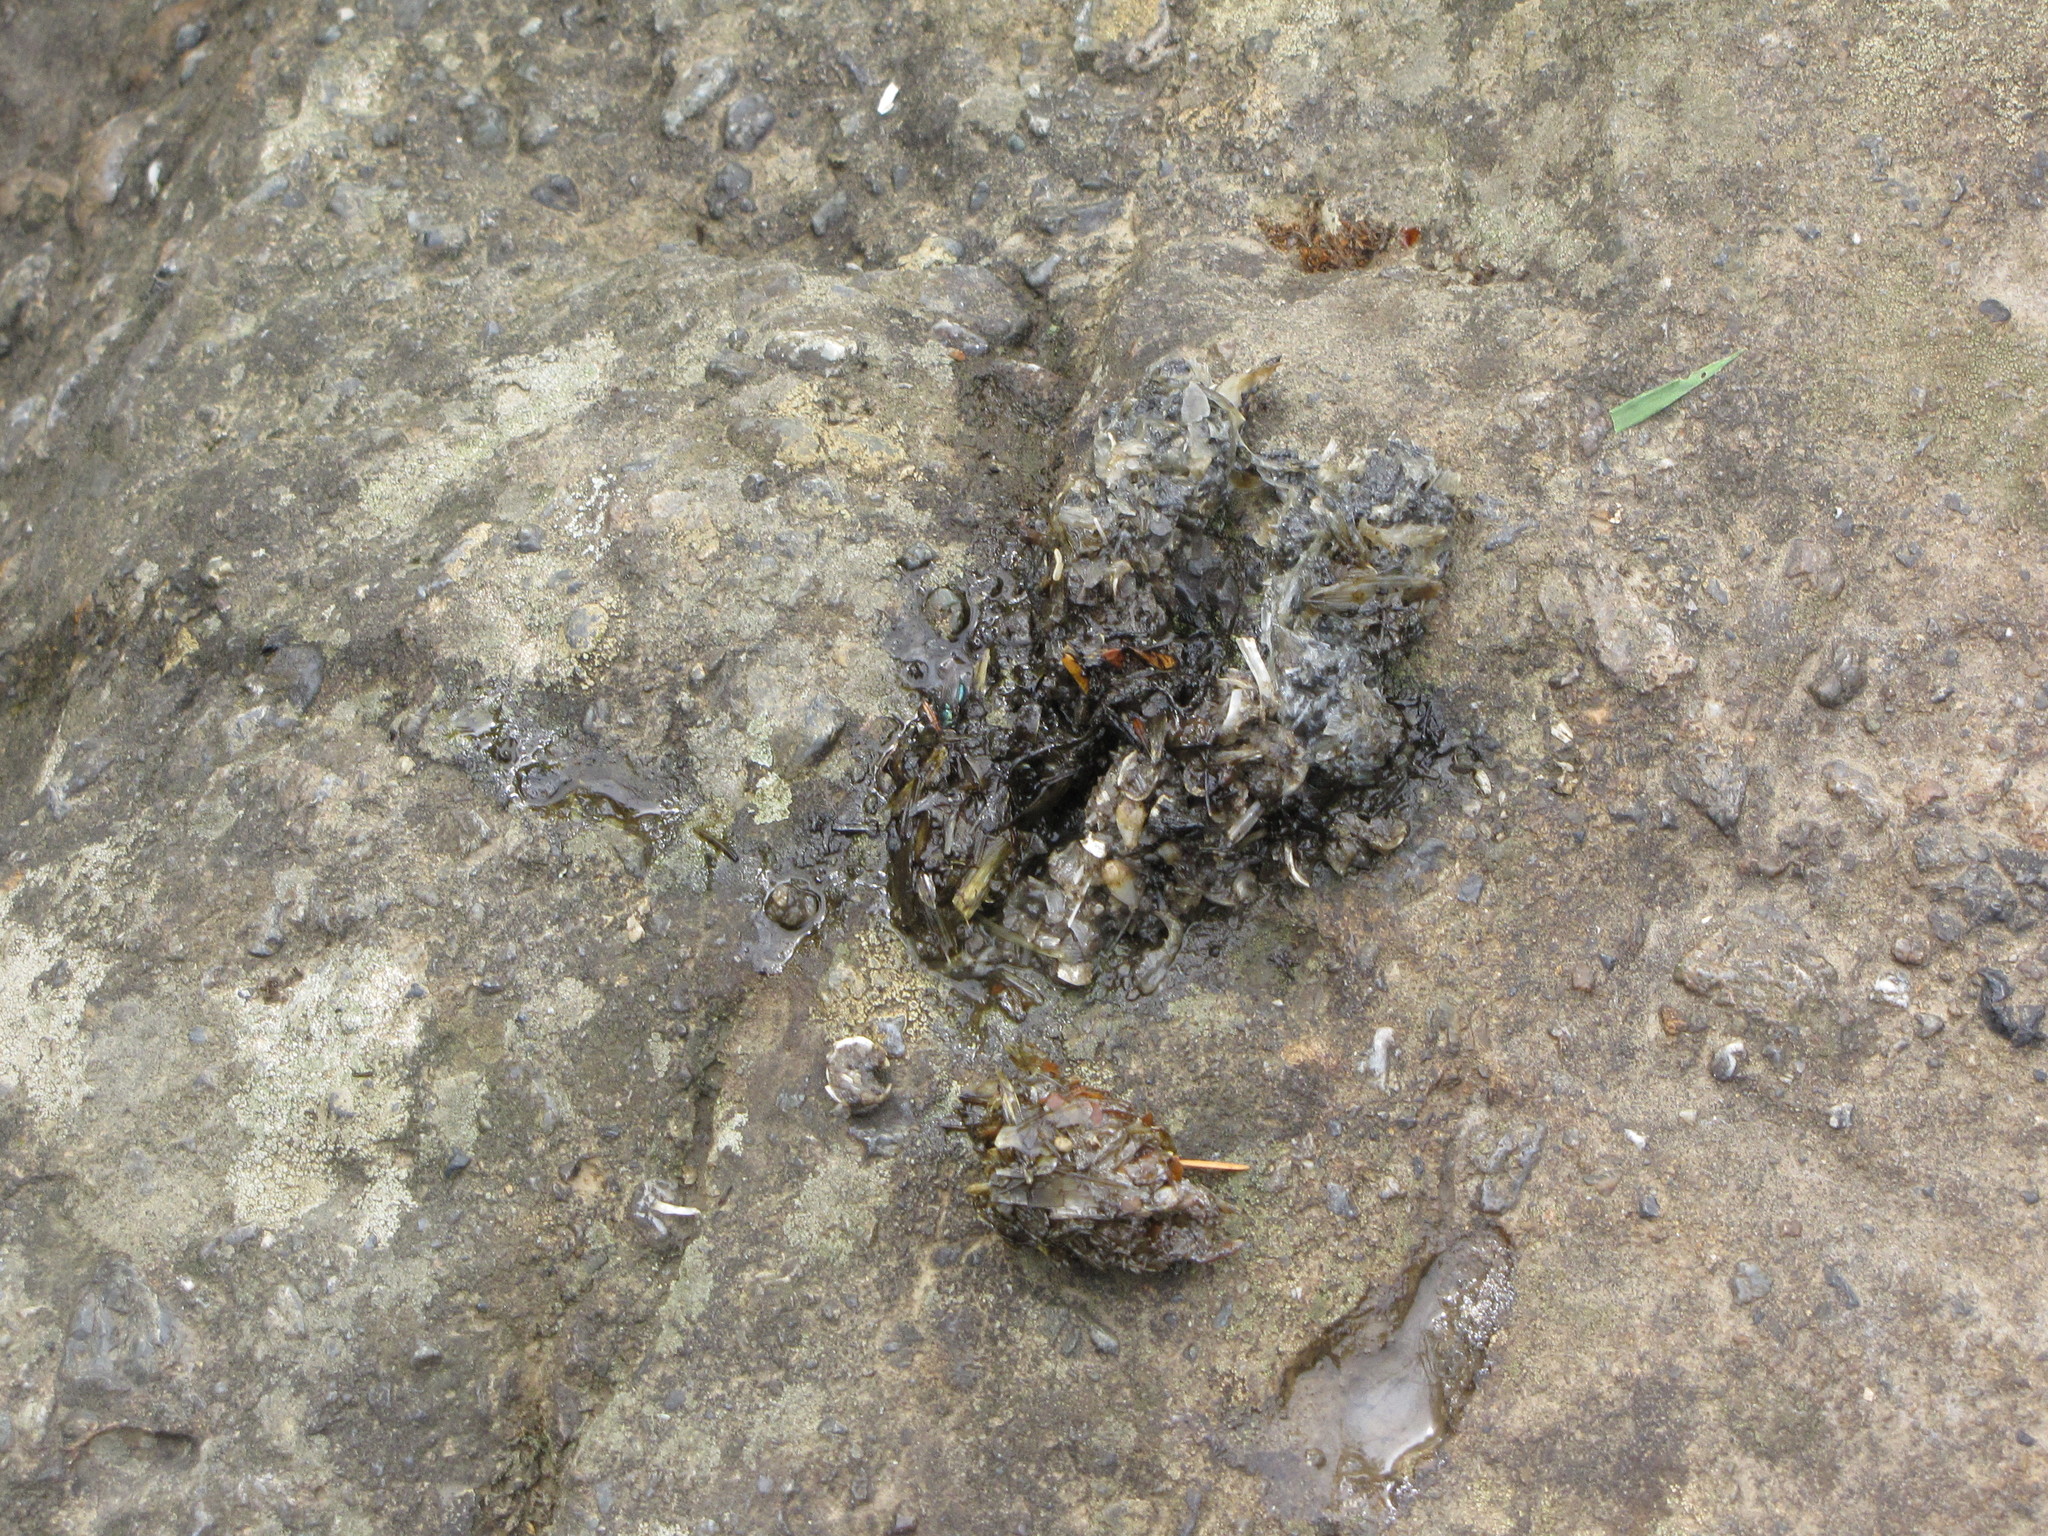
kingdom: Animalia
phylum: Chordata
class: Mammalia
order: Carnivora
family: Mustelidae
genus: Lontra
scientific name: Lontra canadensis
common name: North american river otter
